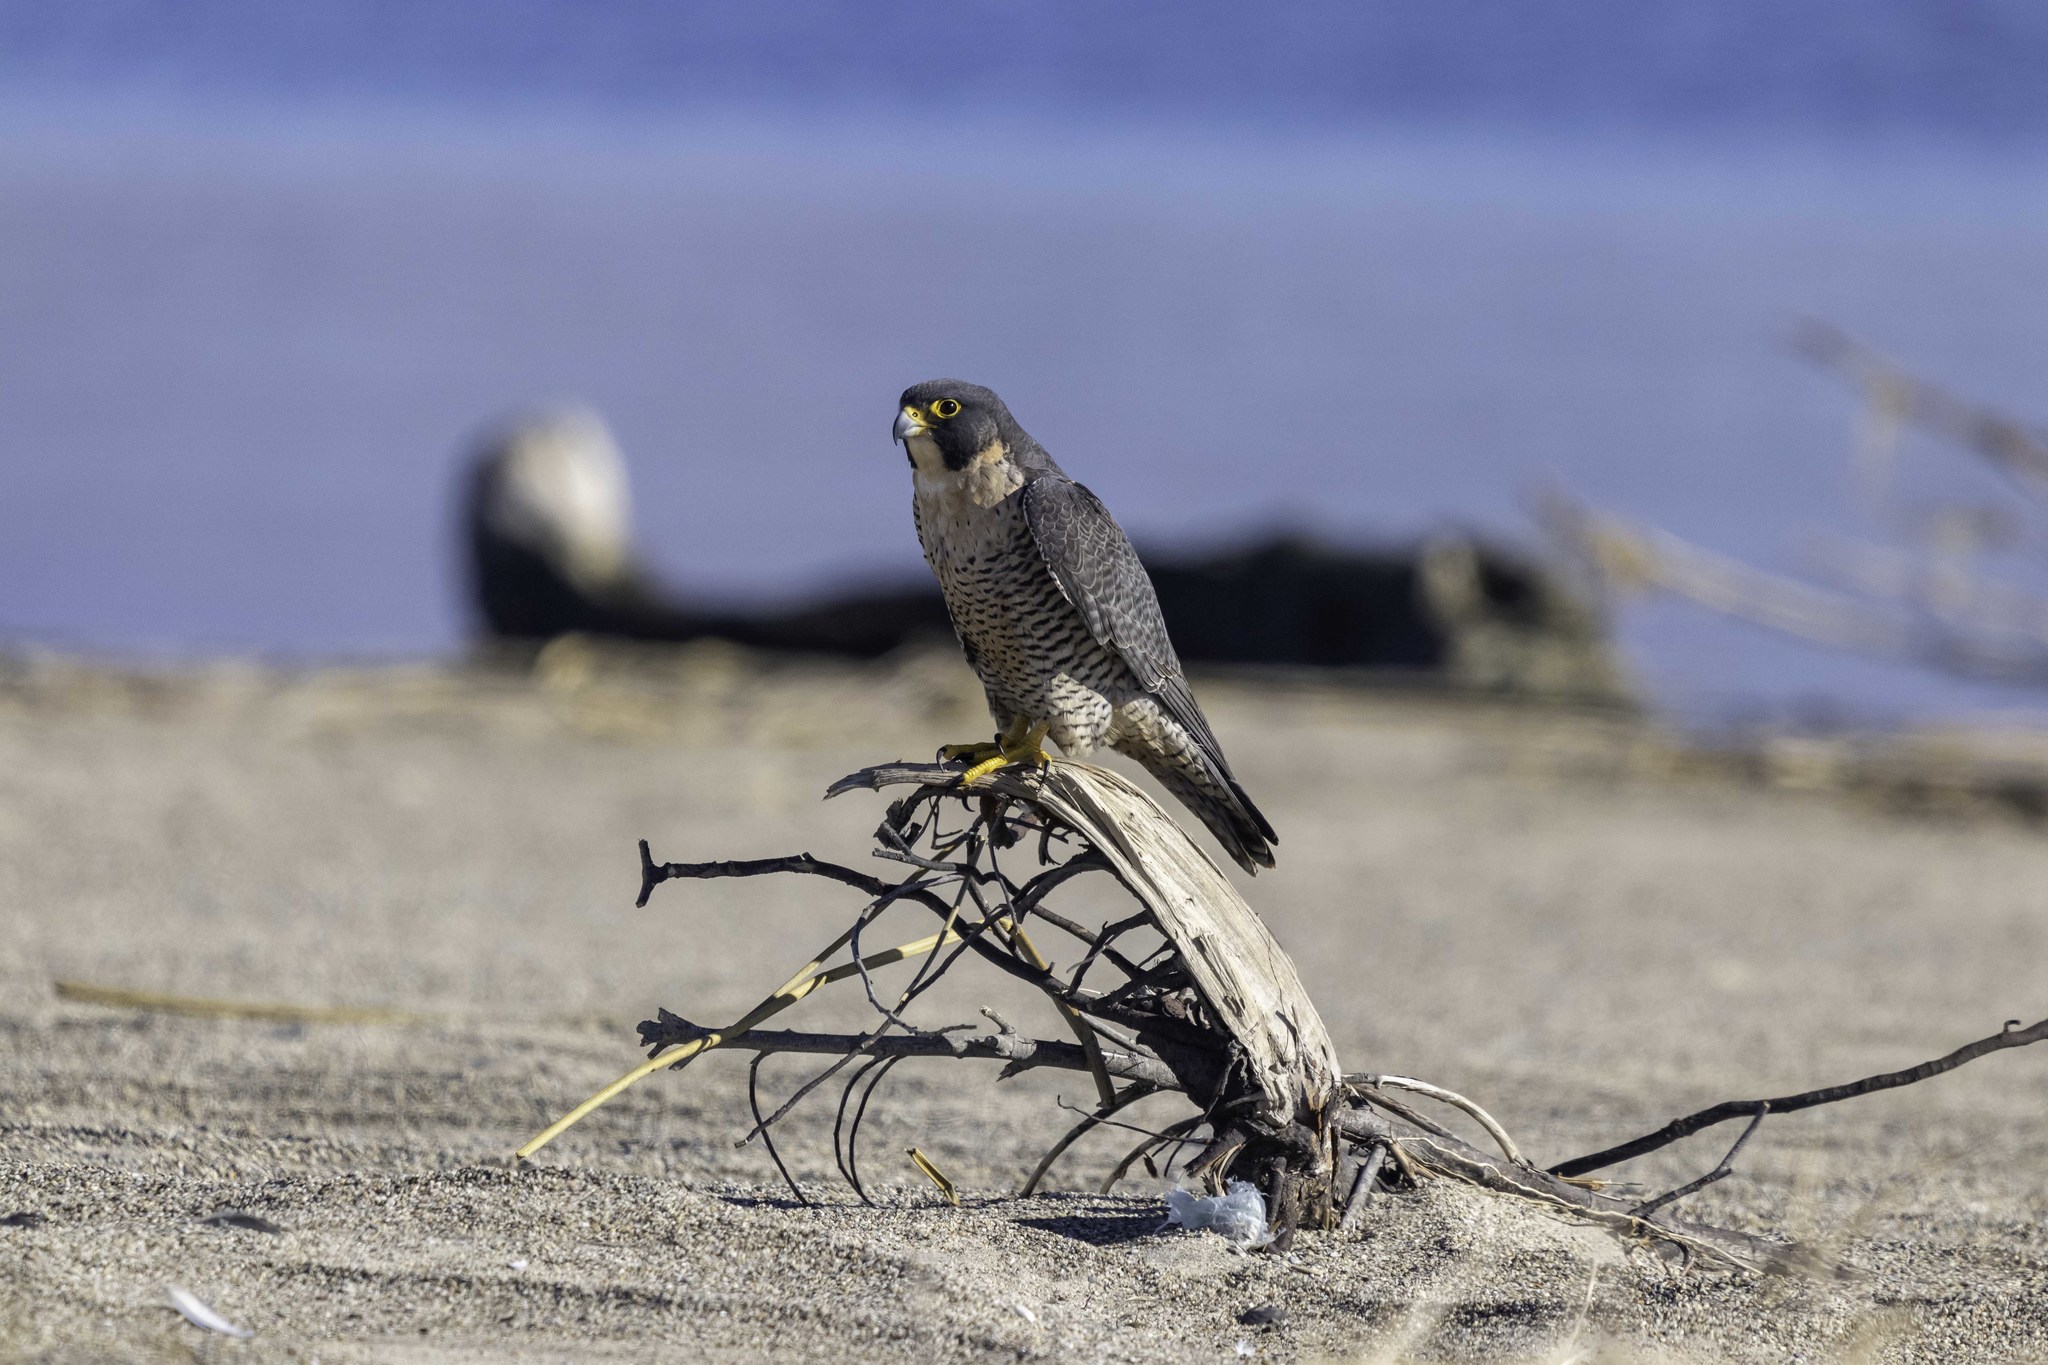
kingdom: Animalia
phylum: Chordata
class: Aves
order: Falconiformes
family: Falconidae
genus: Falco
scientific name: Falco peregrinus
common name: Peregrine falcon
